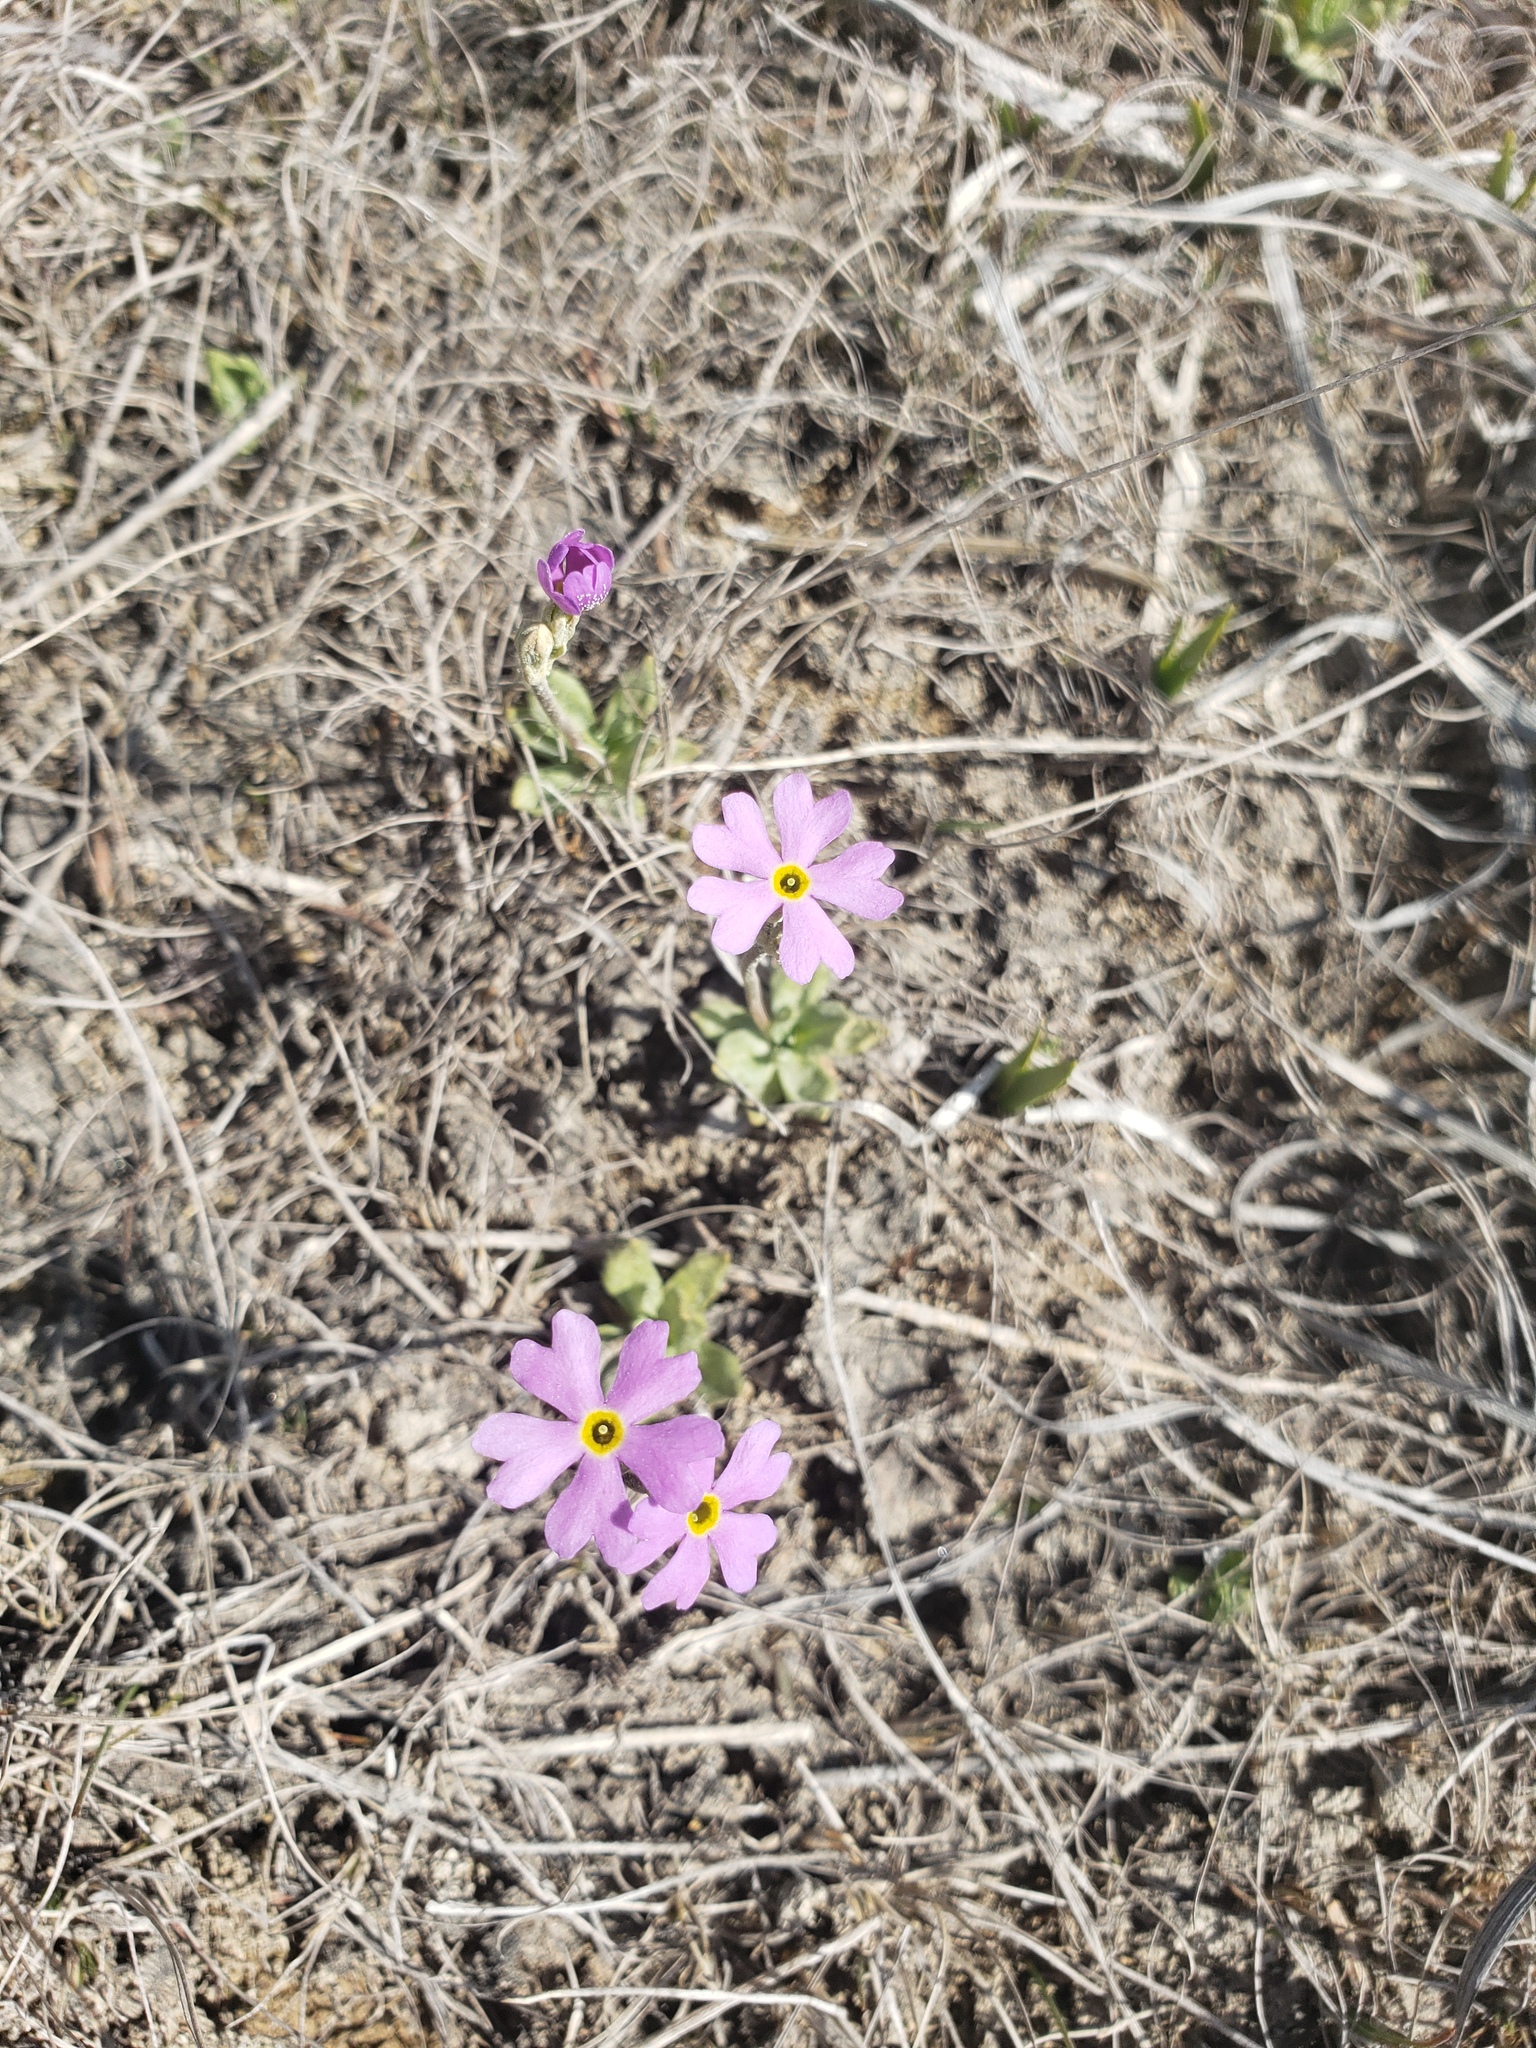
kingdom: Plantae
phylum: Tracheophyta
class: Magnoliopsida
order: Ericales
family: Primulaceae
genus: Primula
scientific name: Primula mistassinica
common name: Bird's-eye primrose
